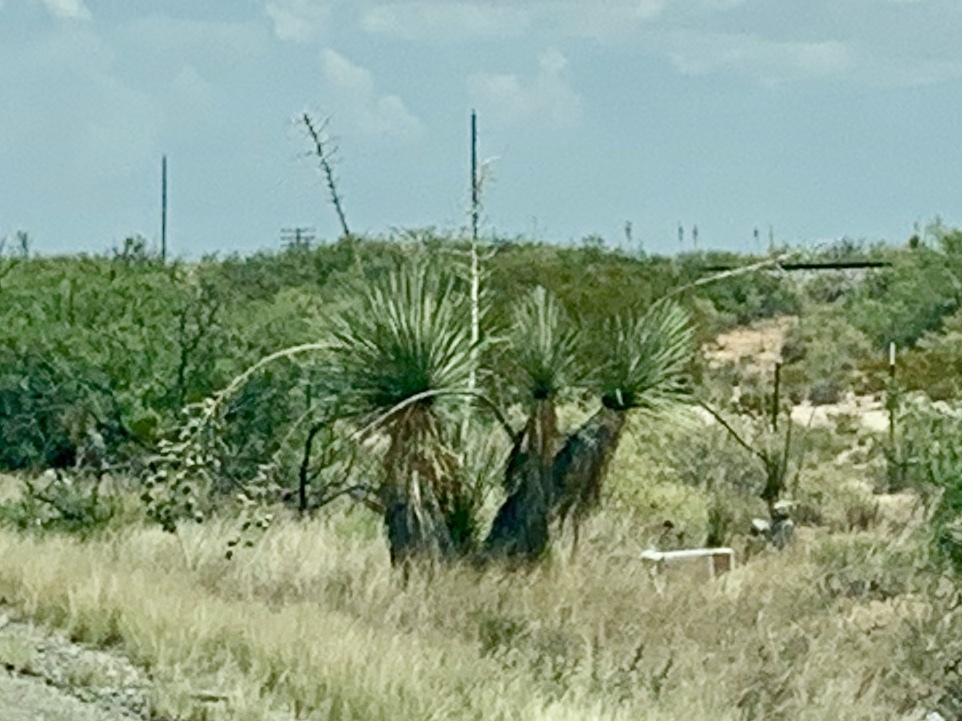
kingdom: Plantae
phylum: Tracheophyta
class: Liliopsida
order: Asparagales
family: Asparagaceae
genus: Yucca
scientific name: Yucca elata
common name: Palmella
